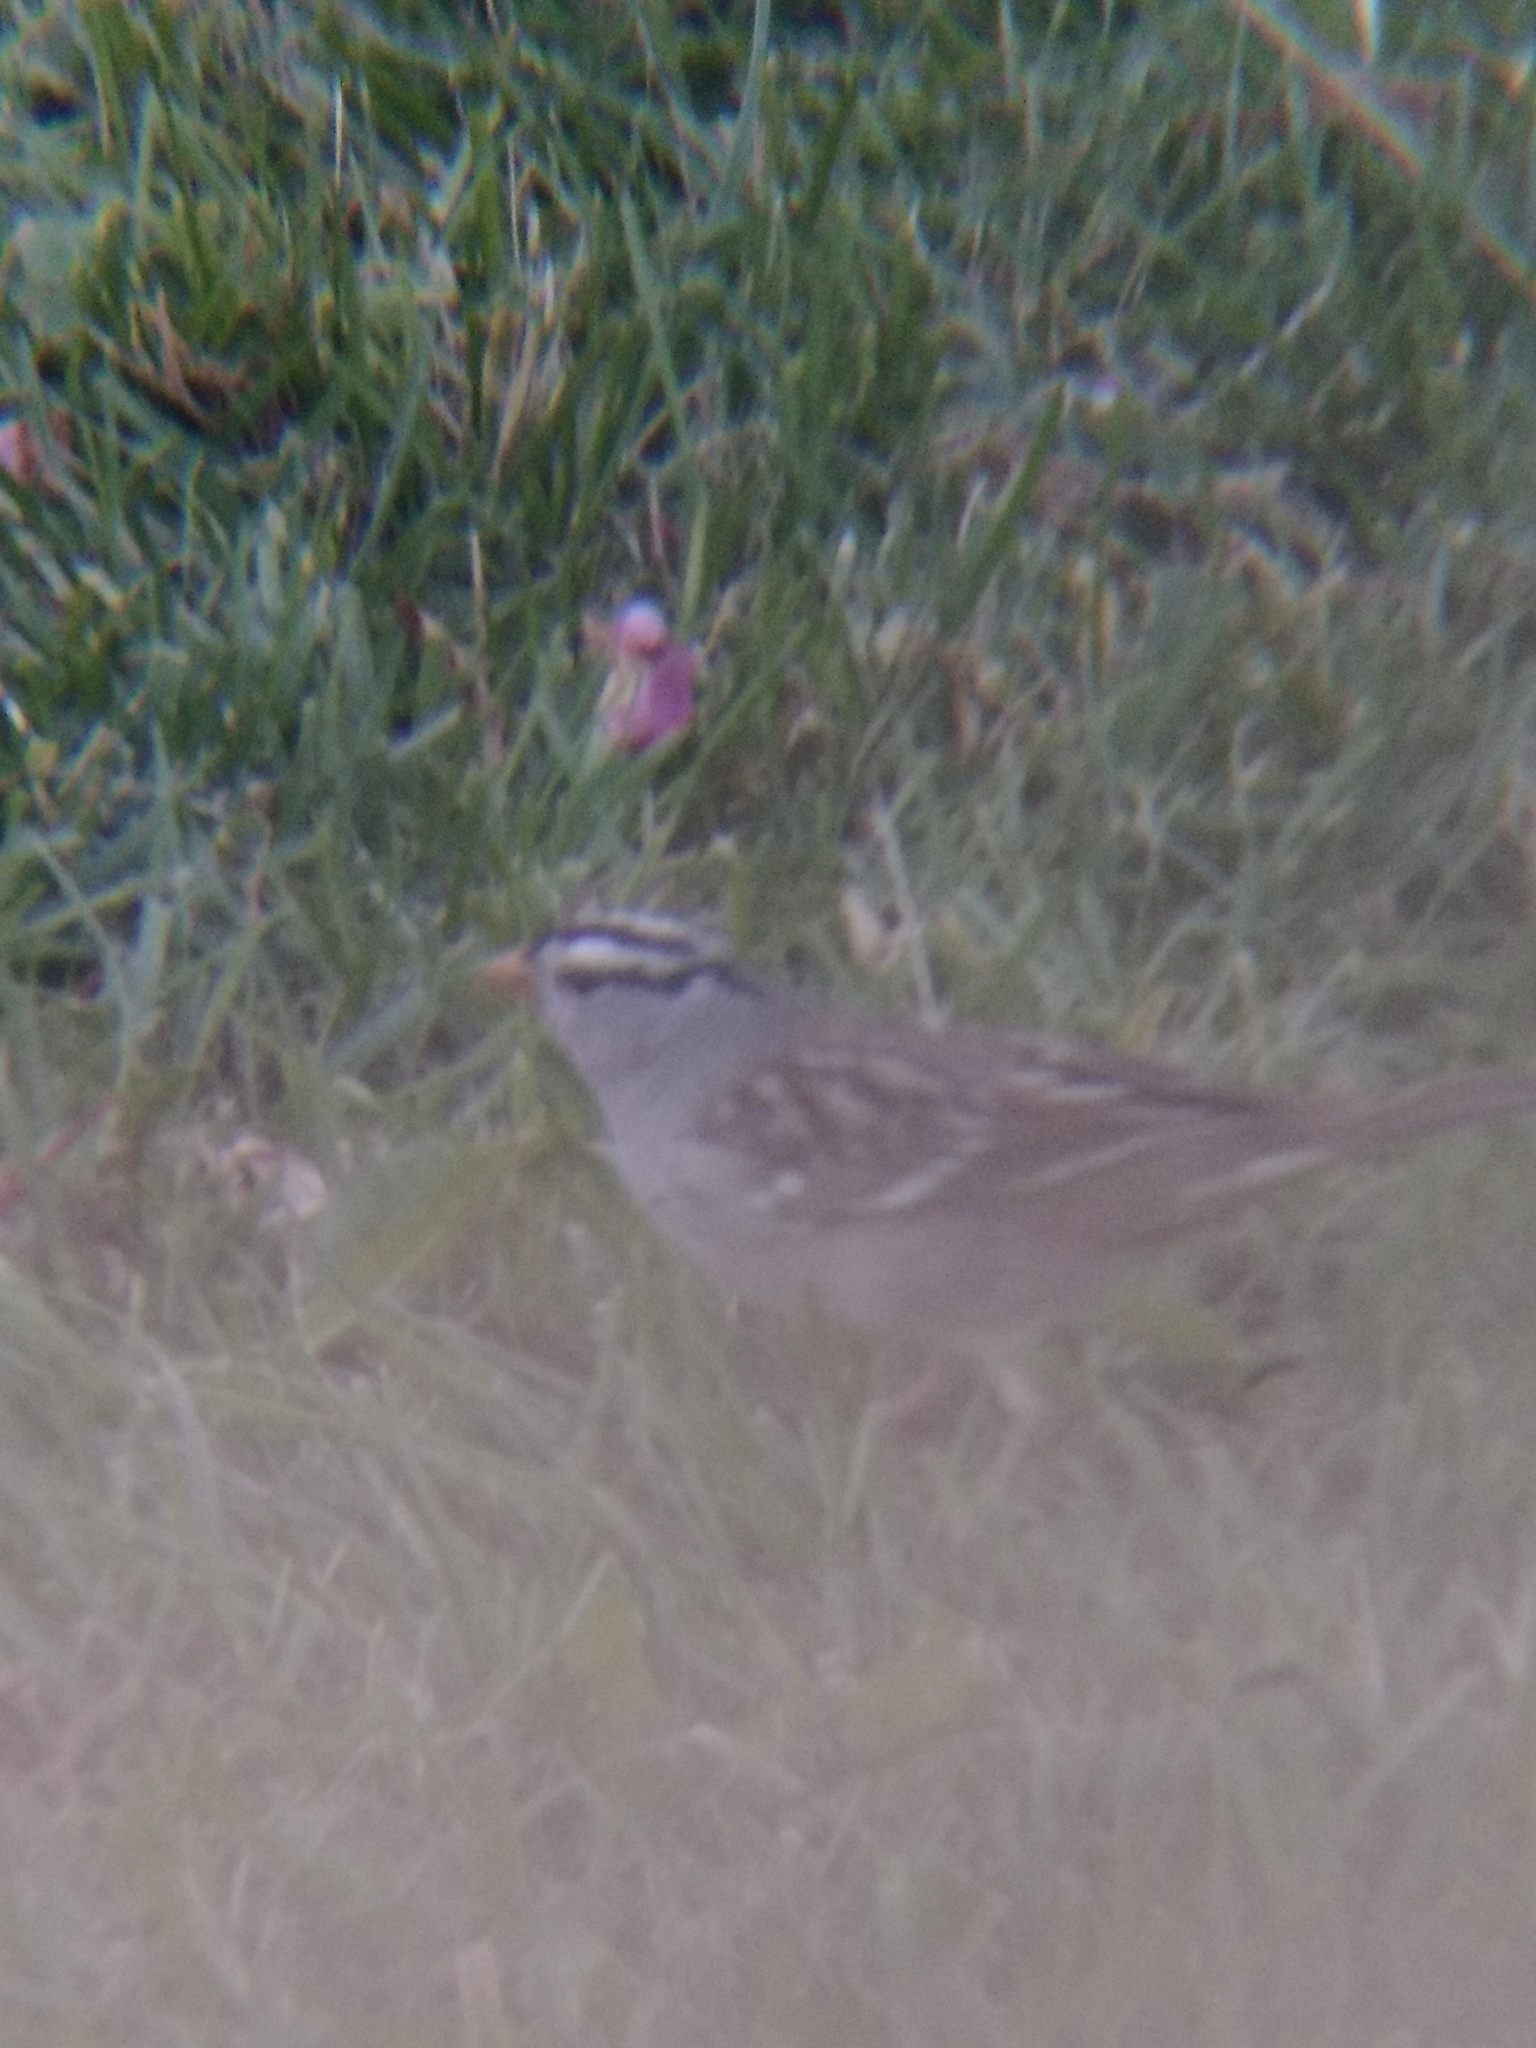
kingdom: Animalia
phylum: Chordata
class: Aves
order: Passeriformes
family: Passerellidae
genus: Zonotrichia
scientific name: Zonotrichia leucophrys
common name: White-crowned sparrow
